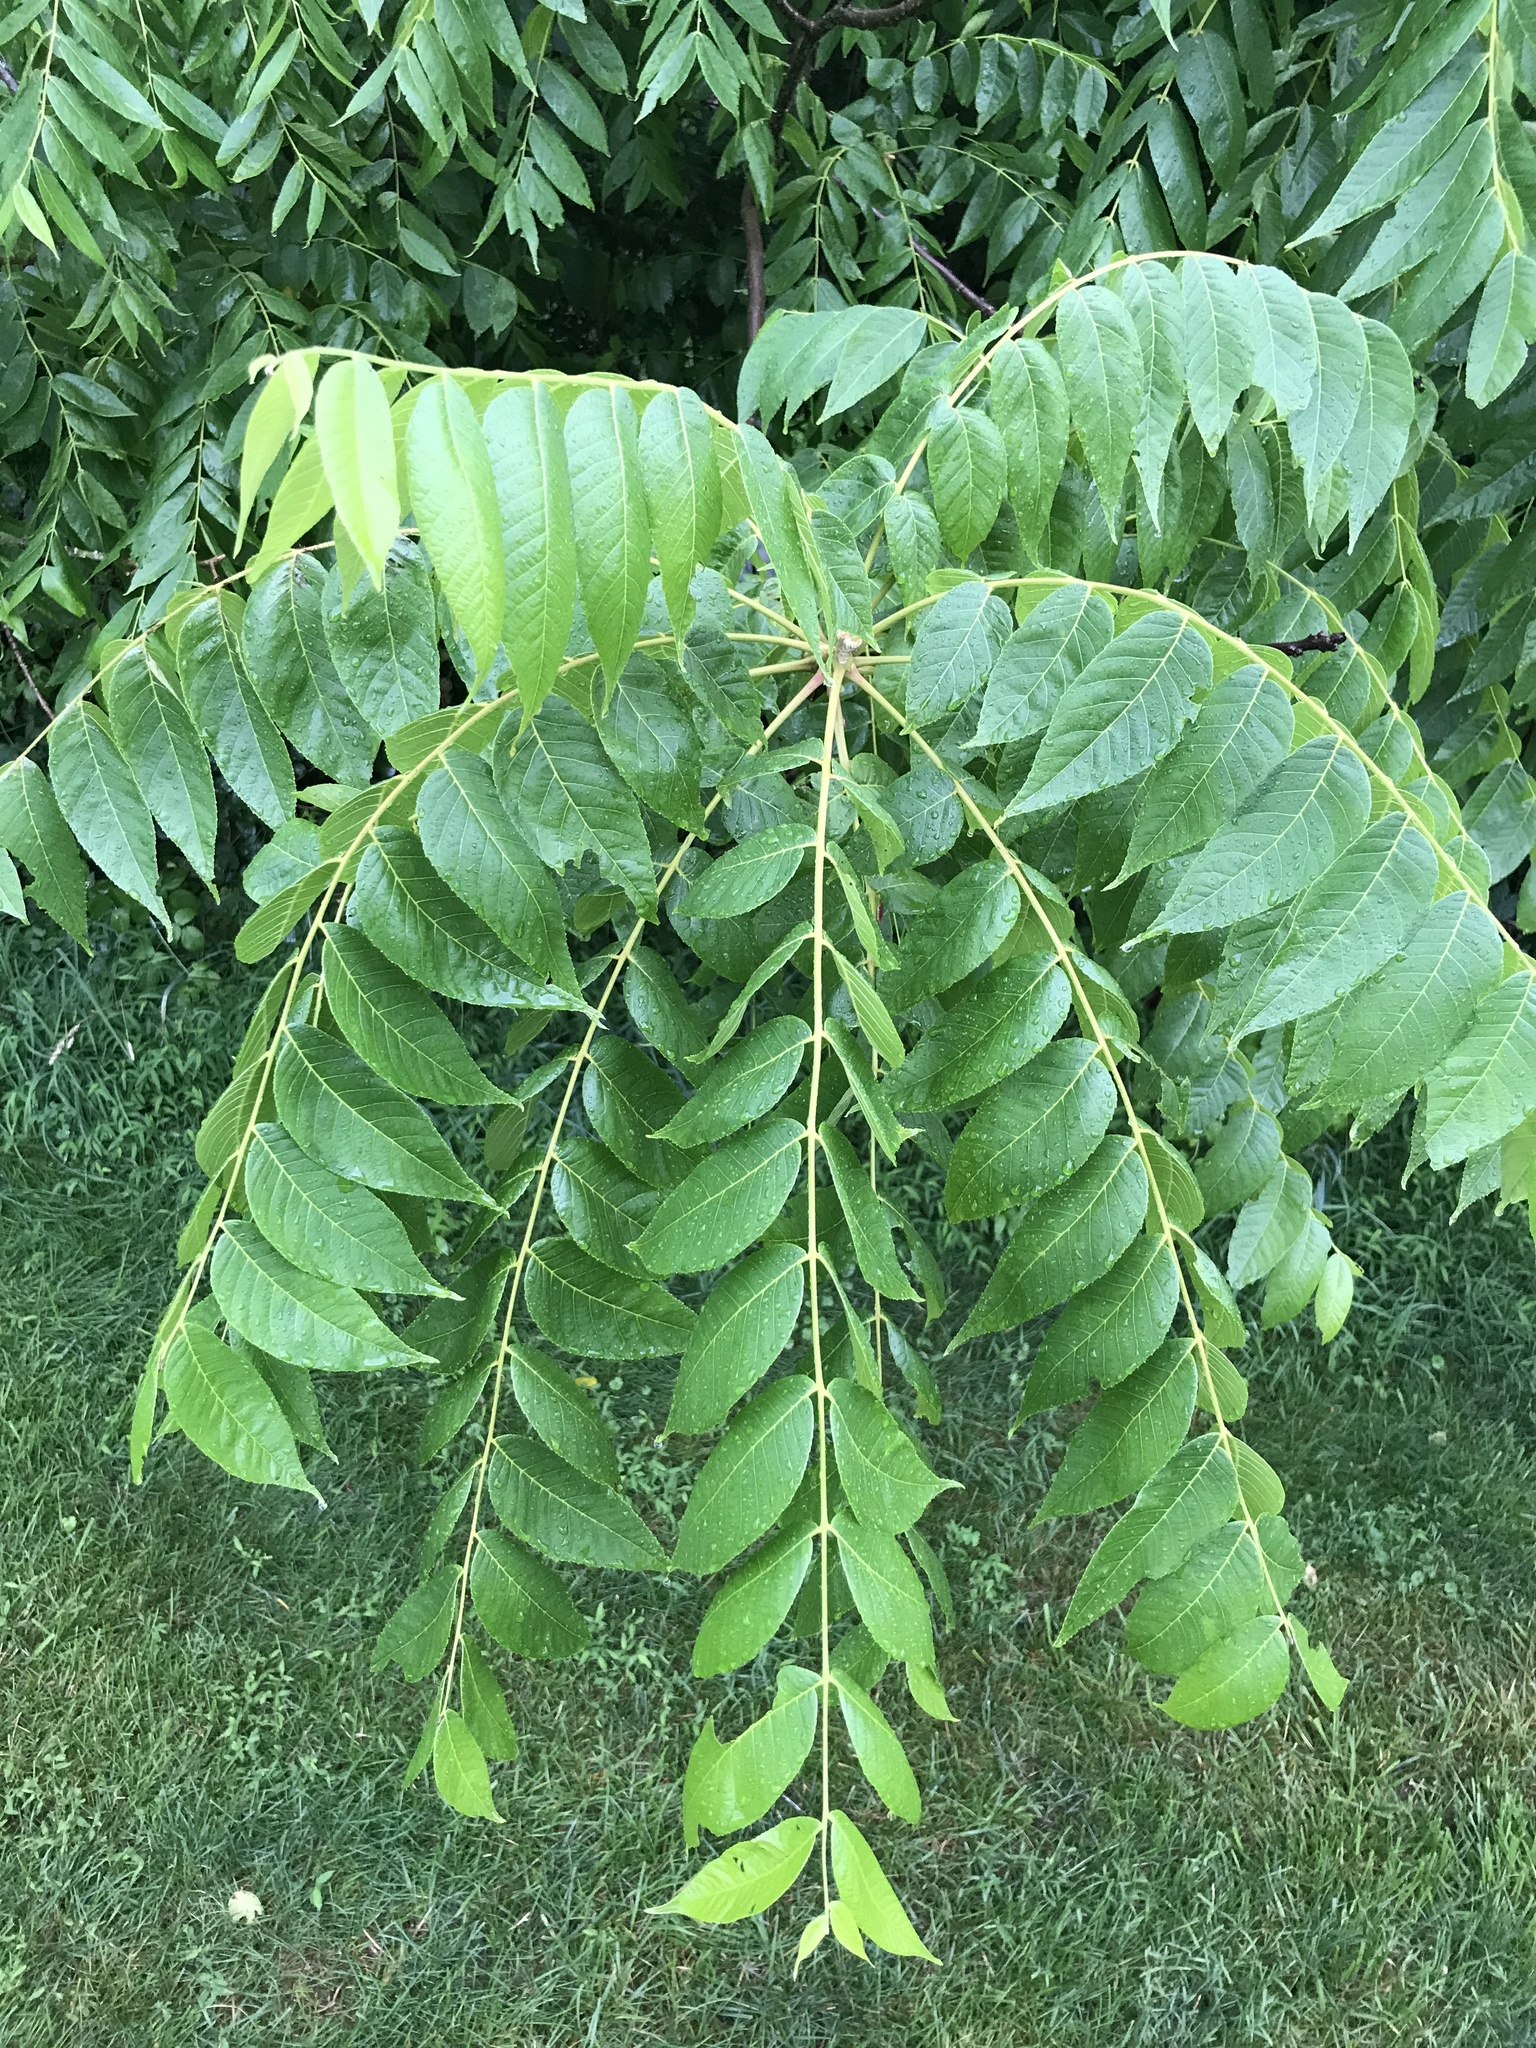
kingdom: Plantae
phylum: Tracheophyta
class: Magnoliopsida
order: Fagales
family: Juglandaceae
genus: Juglans
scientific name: Juglans nigra
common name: Black walnut
